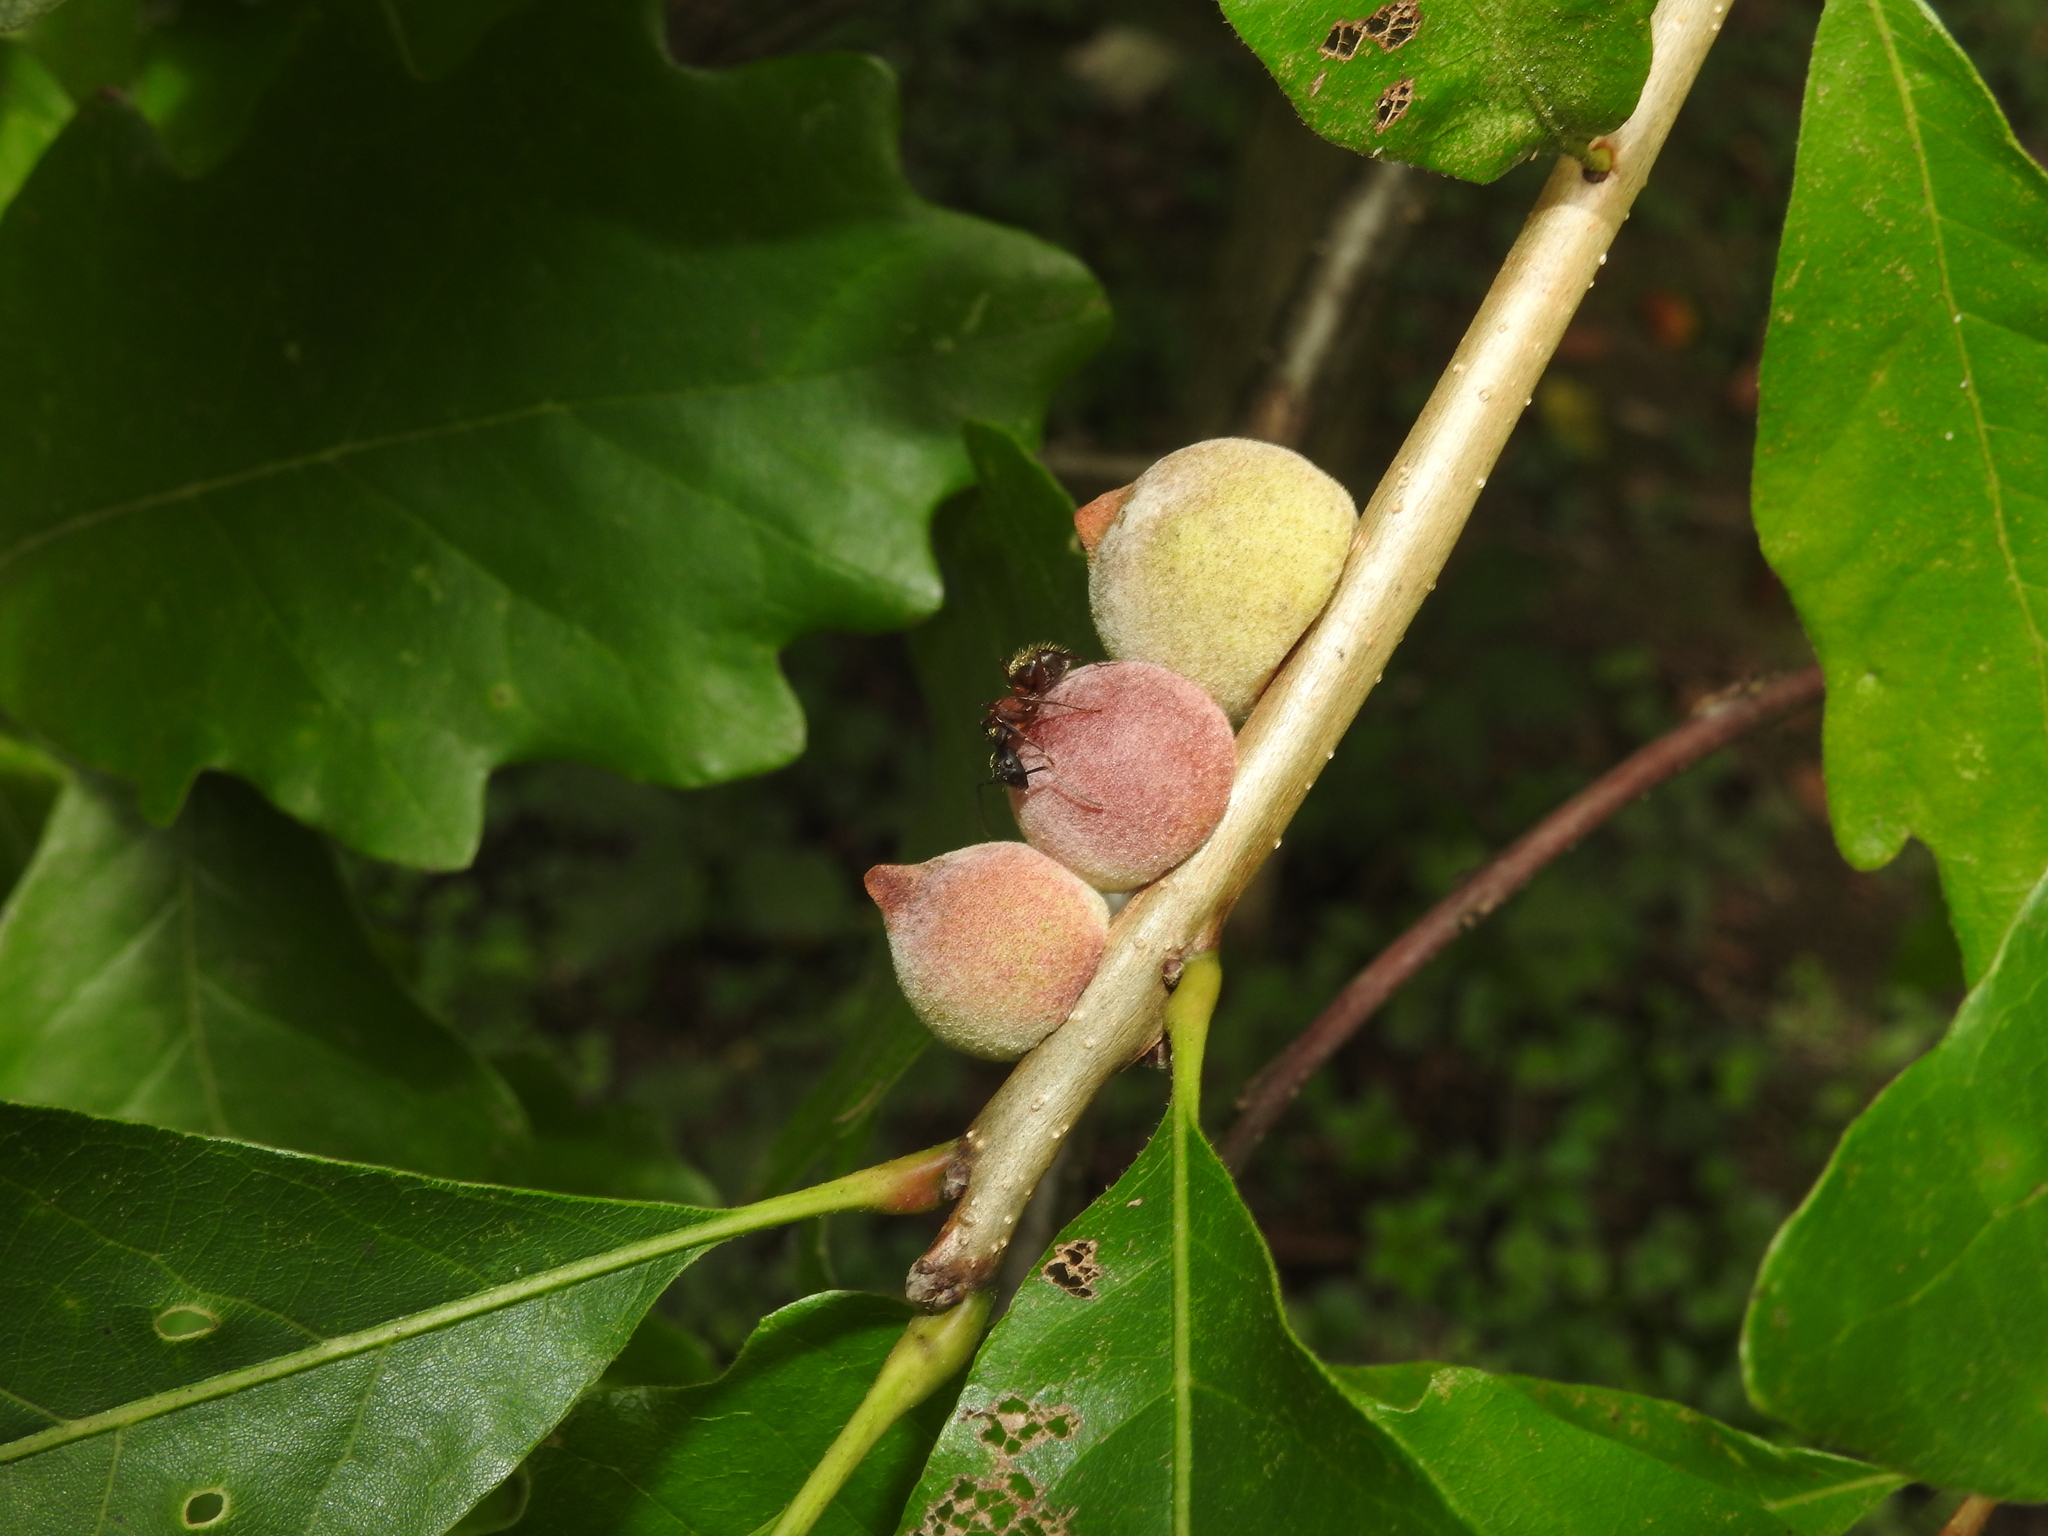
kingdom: Animalia
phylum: Arthropoda
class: Insecta
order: Hymenoptera
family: Cynipidae
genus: Disholcaspis
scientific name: Disholcaspis
